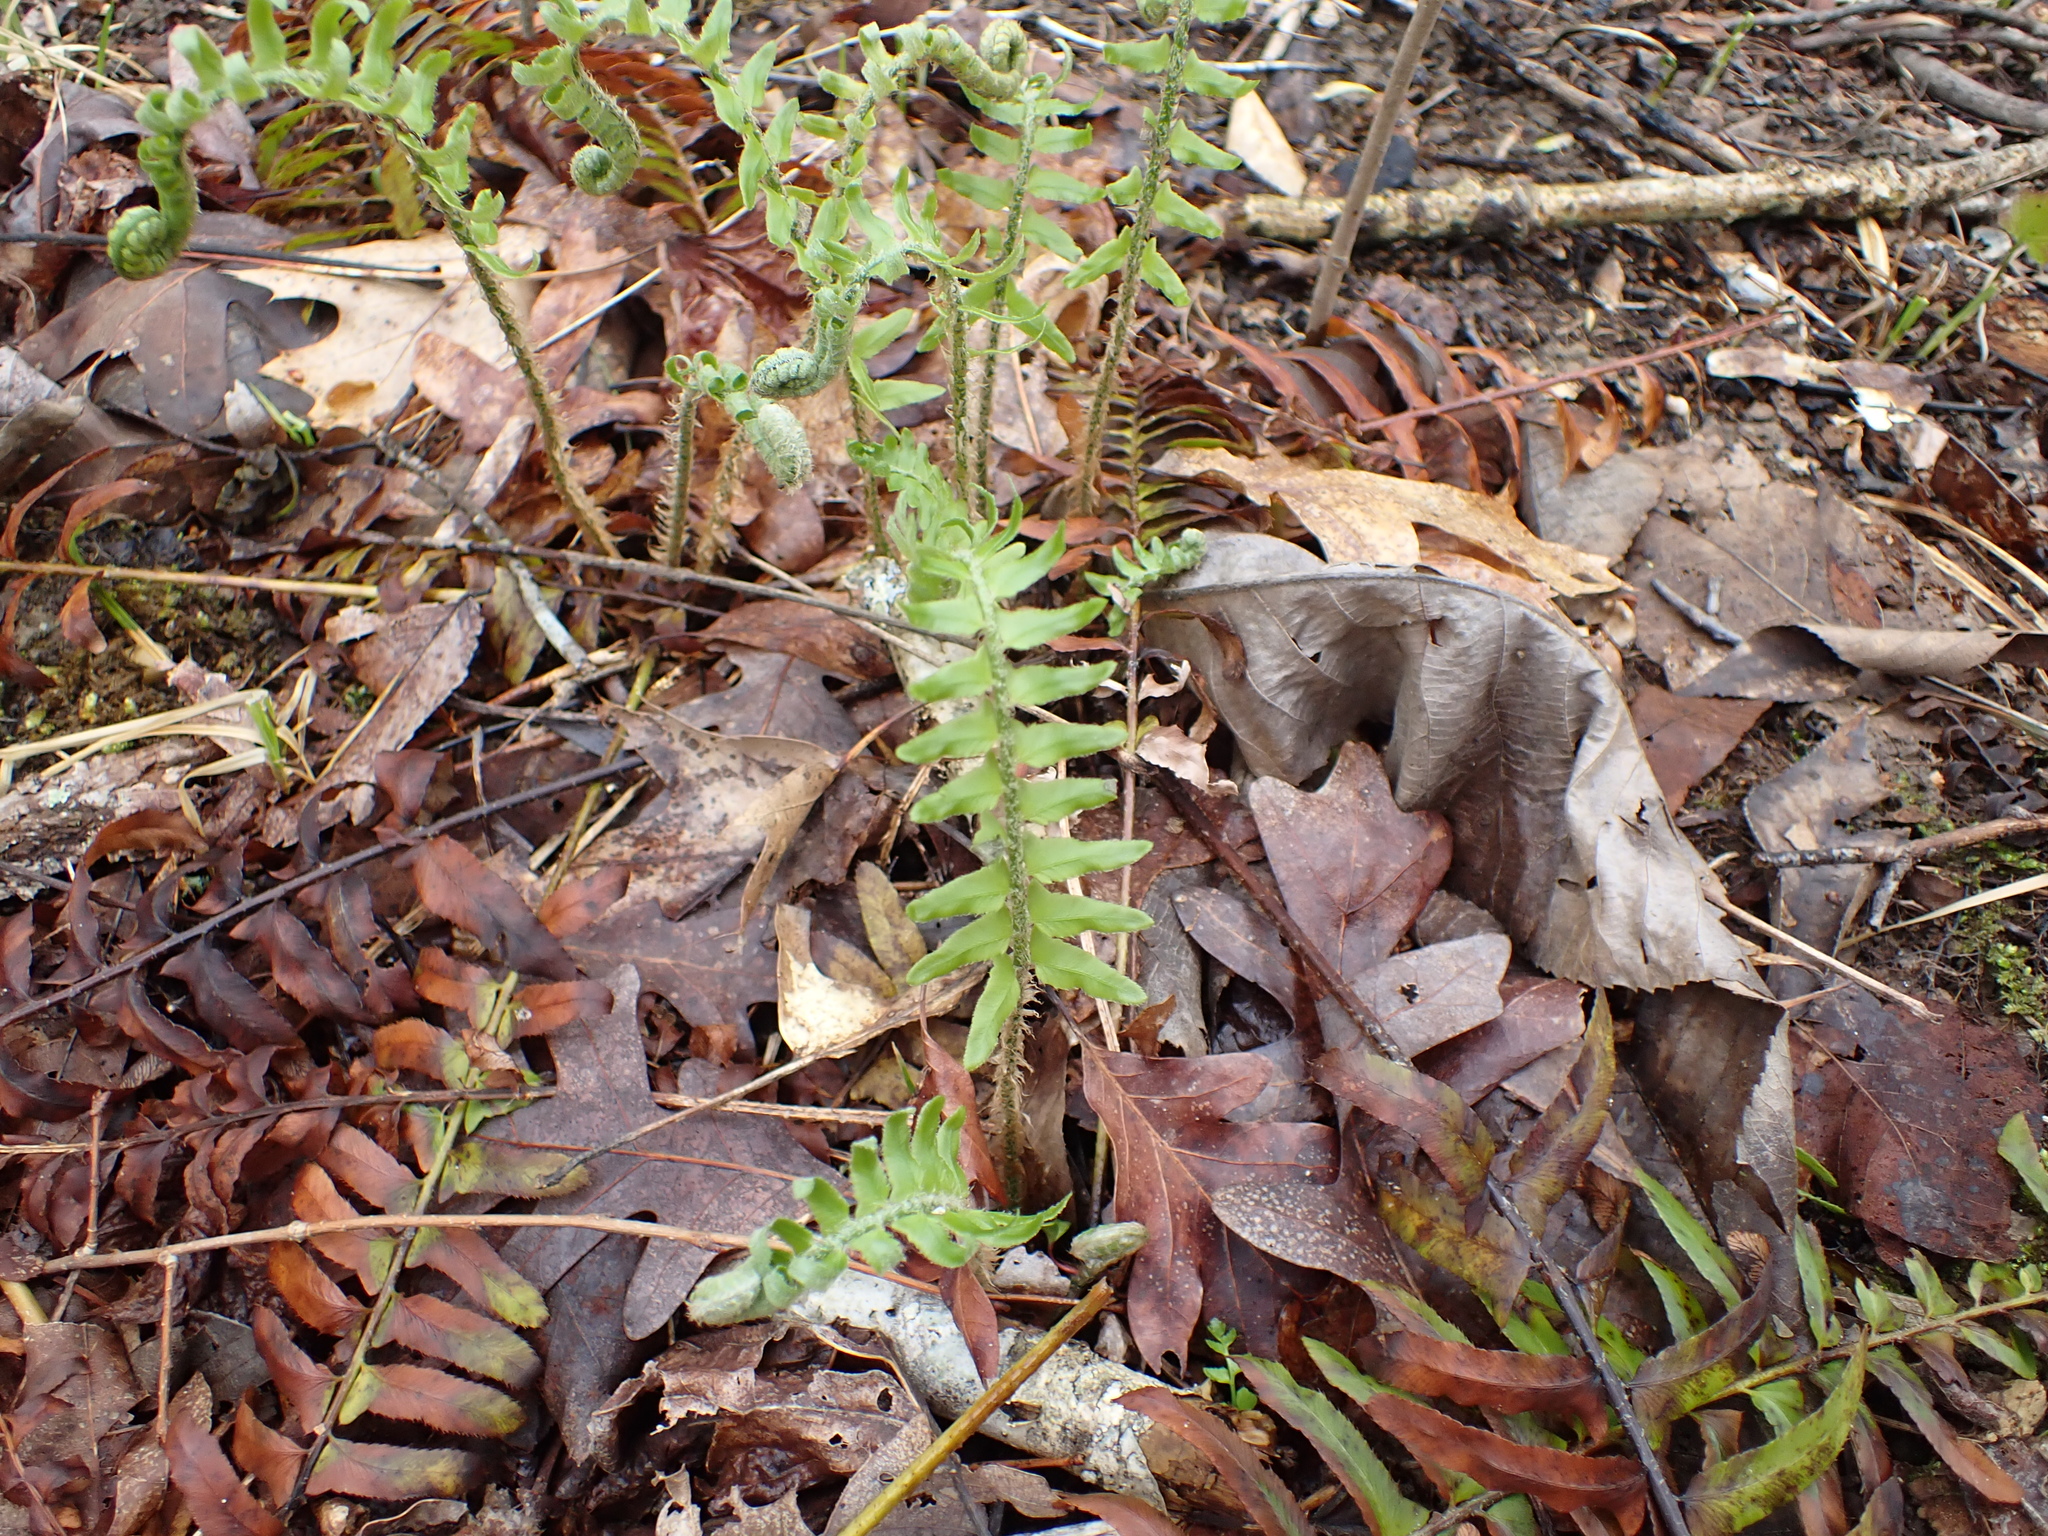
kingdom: Plantae
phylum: Tracheophyta
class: Polypodiopsida
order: Polypodiales
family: Dryopteridaceae
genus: Polystichum
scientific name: Polystichum acrostichoides
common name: Christmas fern
